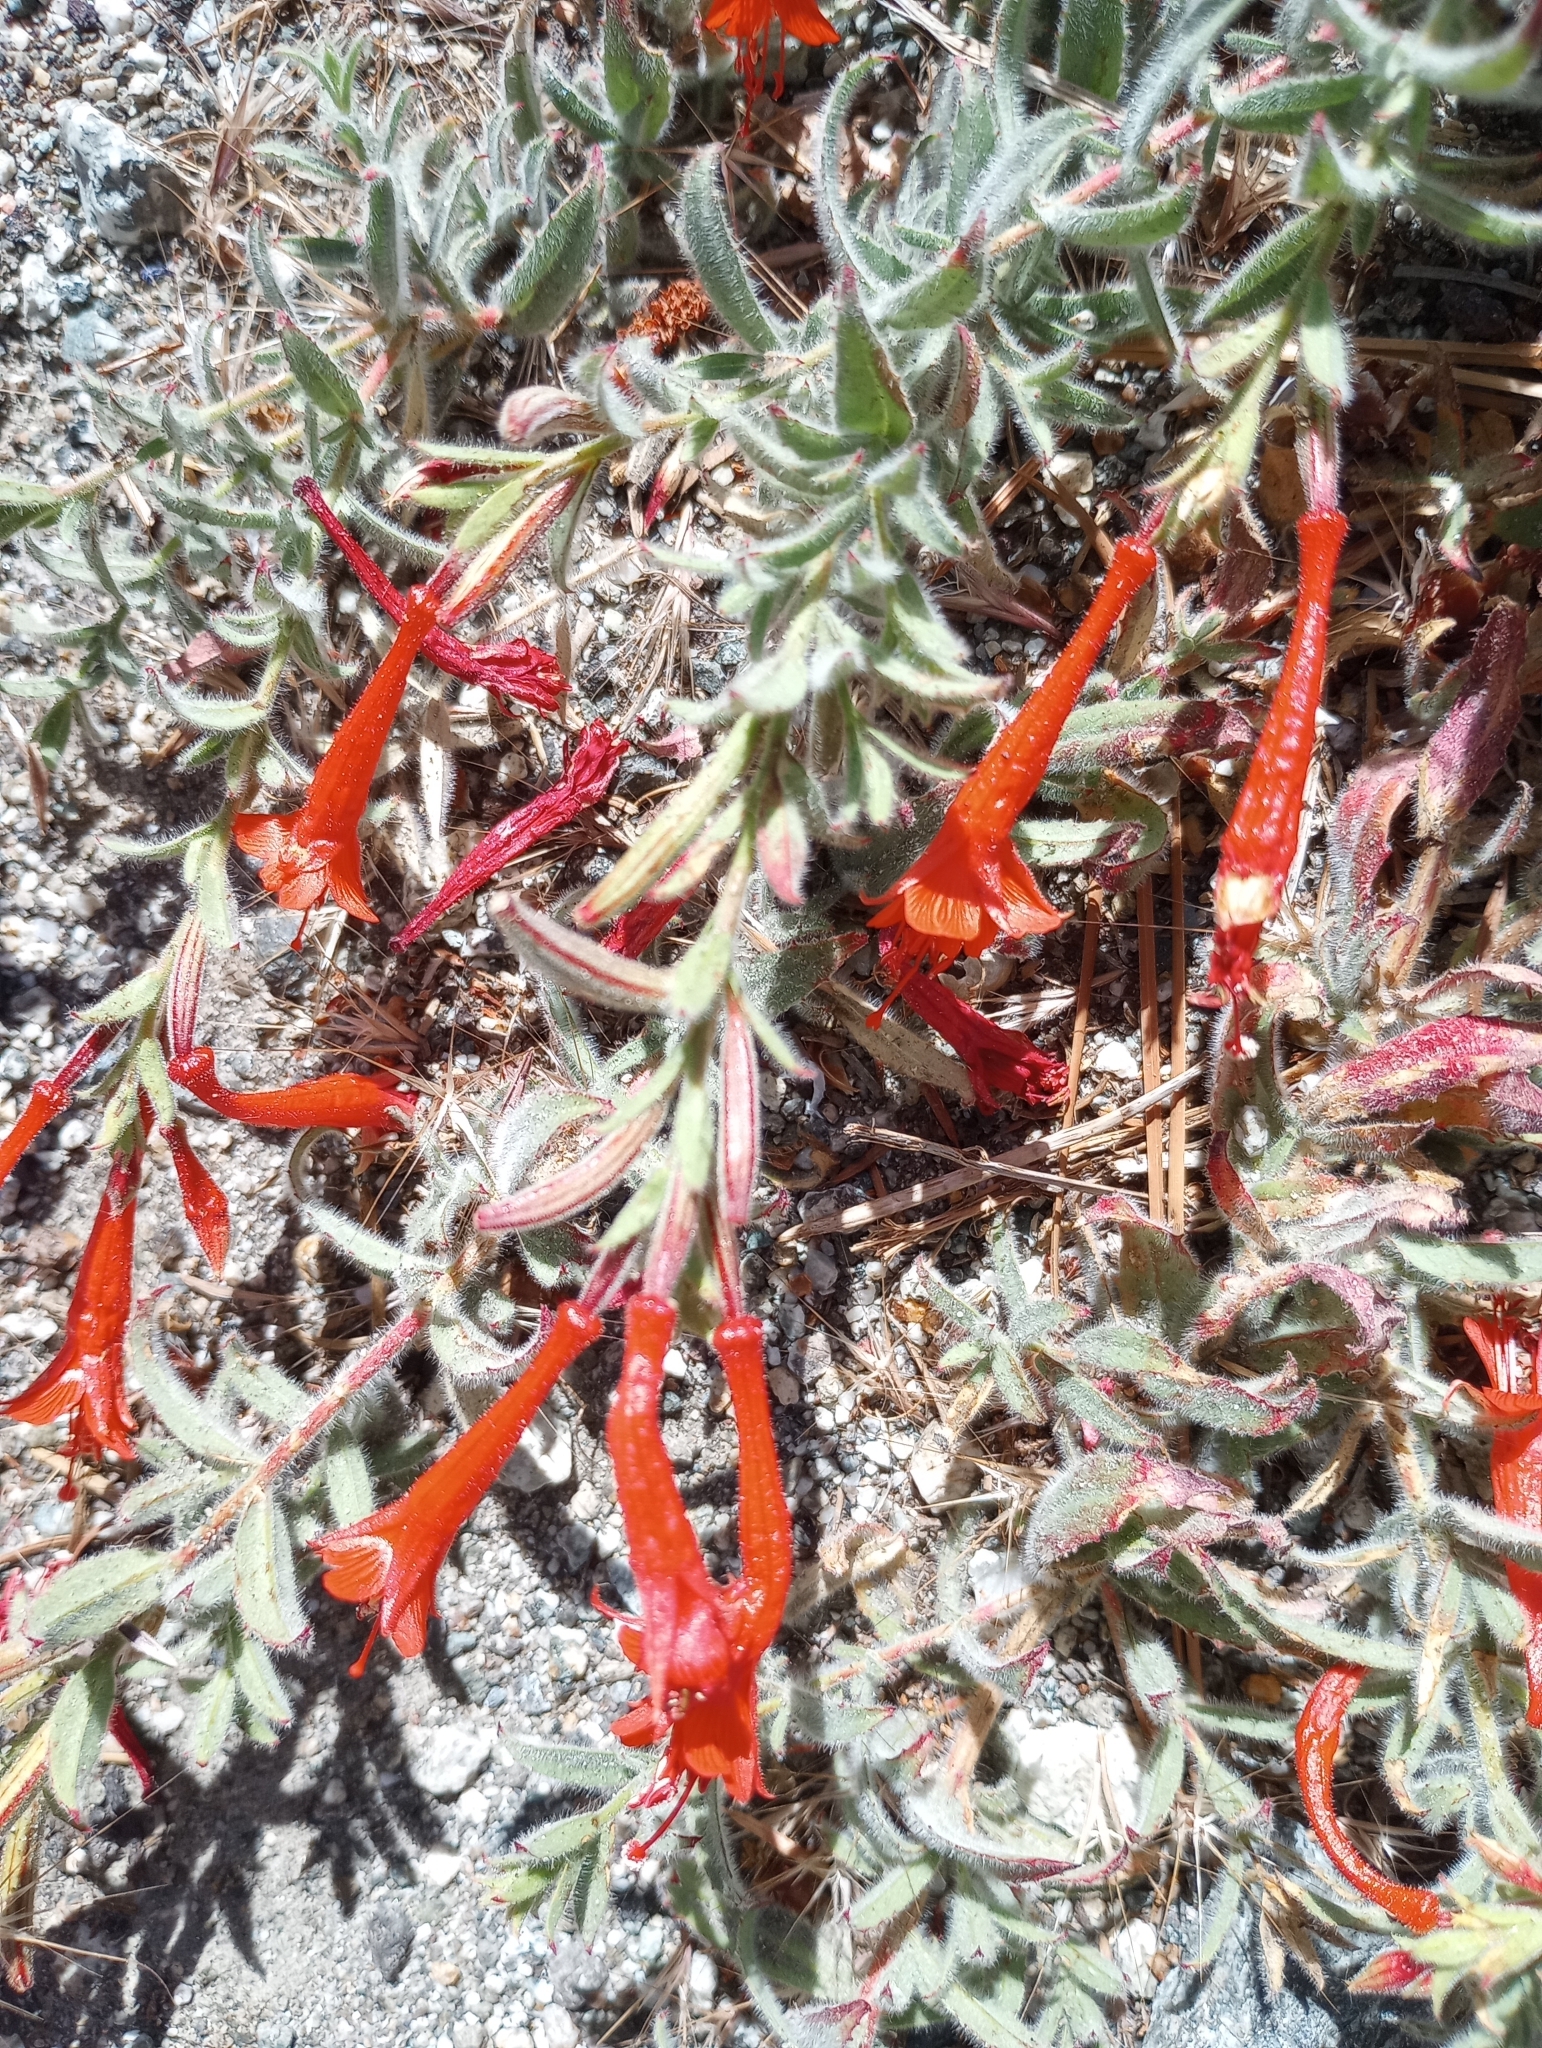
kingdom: Plantae
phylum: Tracheophyta
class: Magnoliopsida
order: Myrtales
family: Onagraceae
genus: Epilobium
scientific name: Epilobium canum
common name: California-fuchsia
